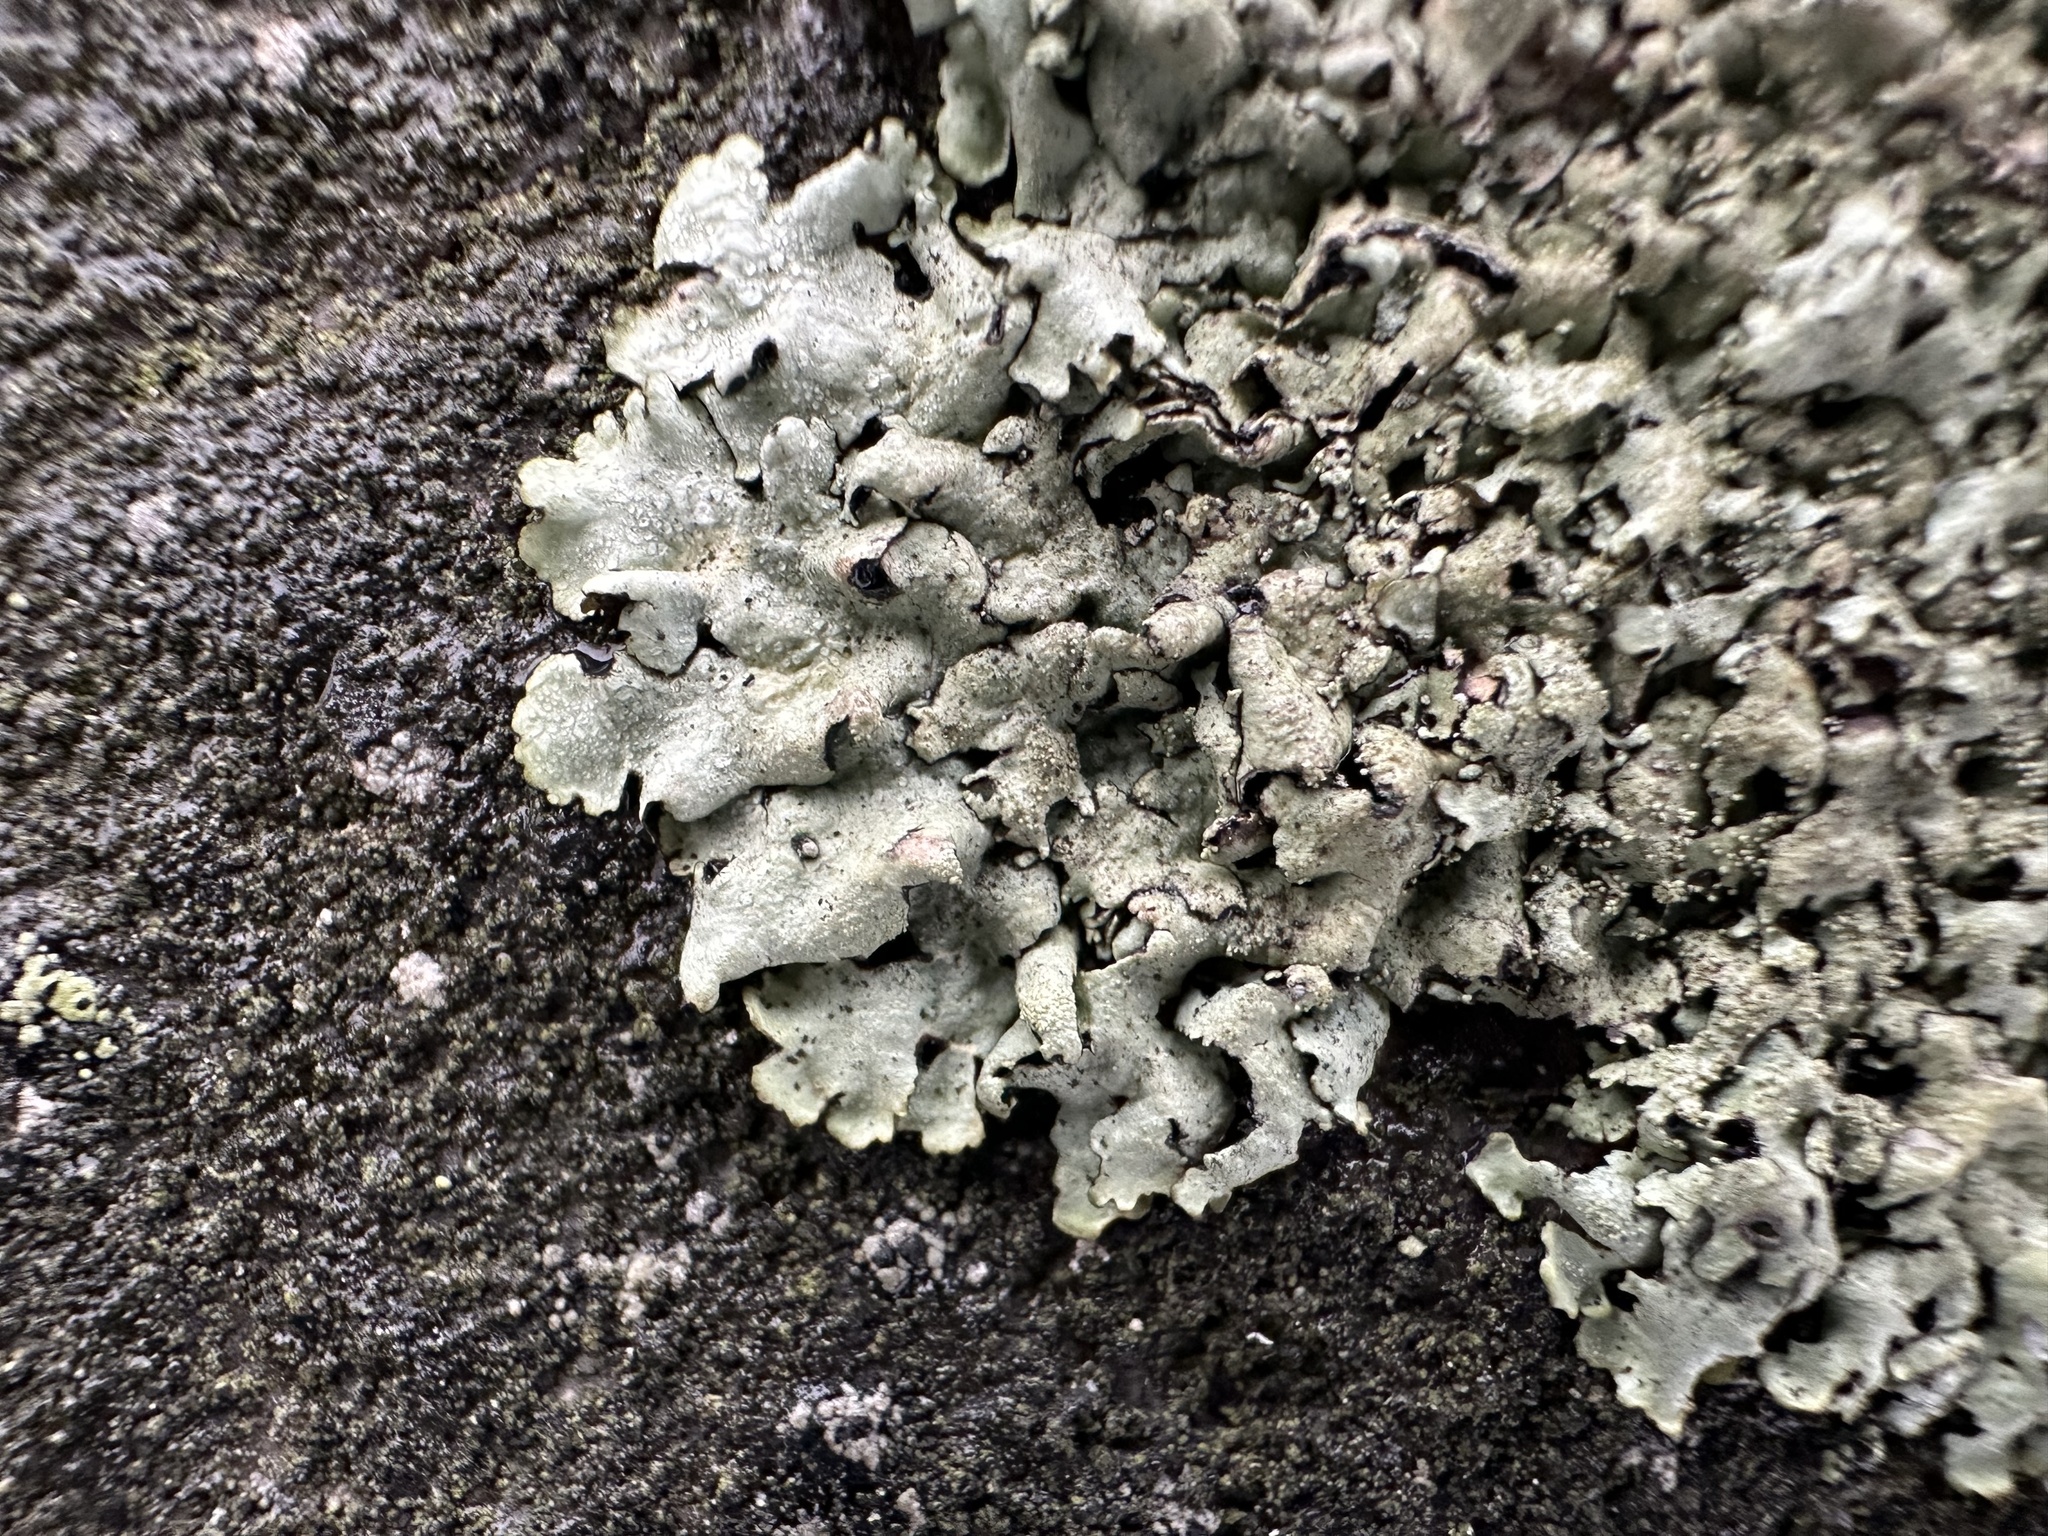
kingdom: Fungi
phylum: Ascomycota
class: Lecanoromycetes
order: Lecanorales
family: Parmeliaceae
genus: Xanthoparmelia
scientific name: Xanthoparmelia conspersa
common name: Peppered rock shield
